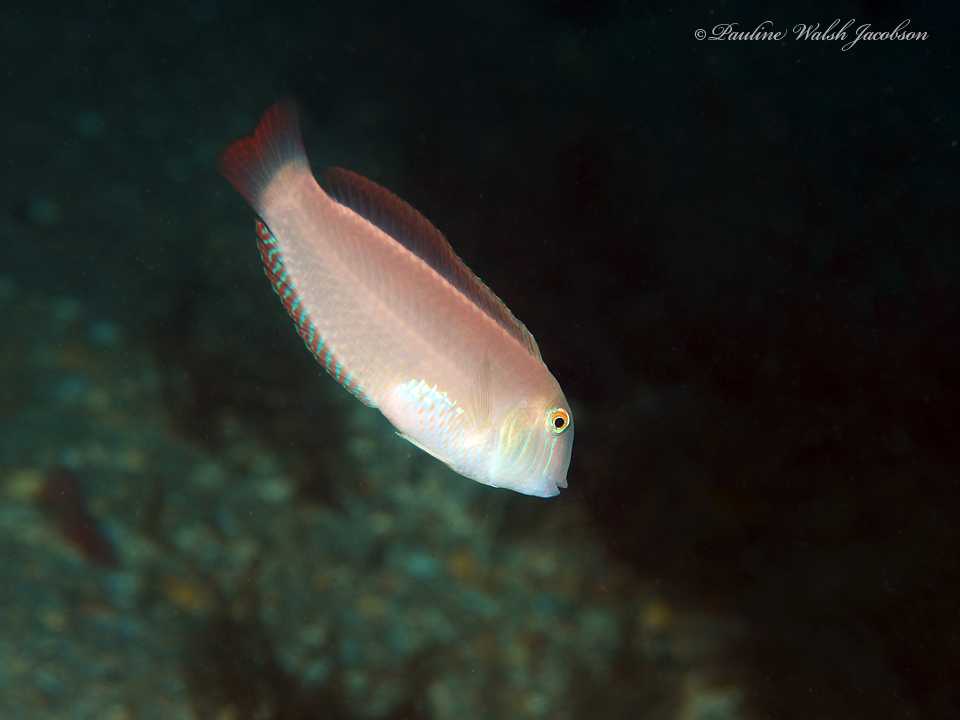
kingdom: Animalia
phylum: Chordata
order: Perciformes
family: Labridae
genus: Xyrichtys
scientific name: Xyrichtys novacula
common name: Pearly razorfish
